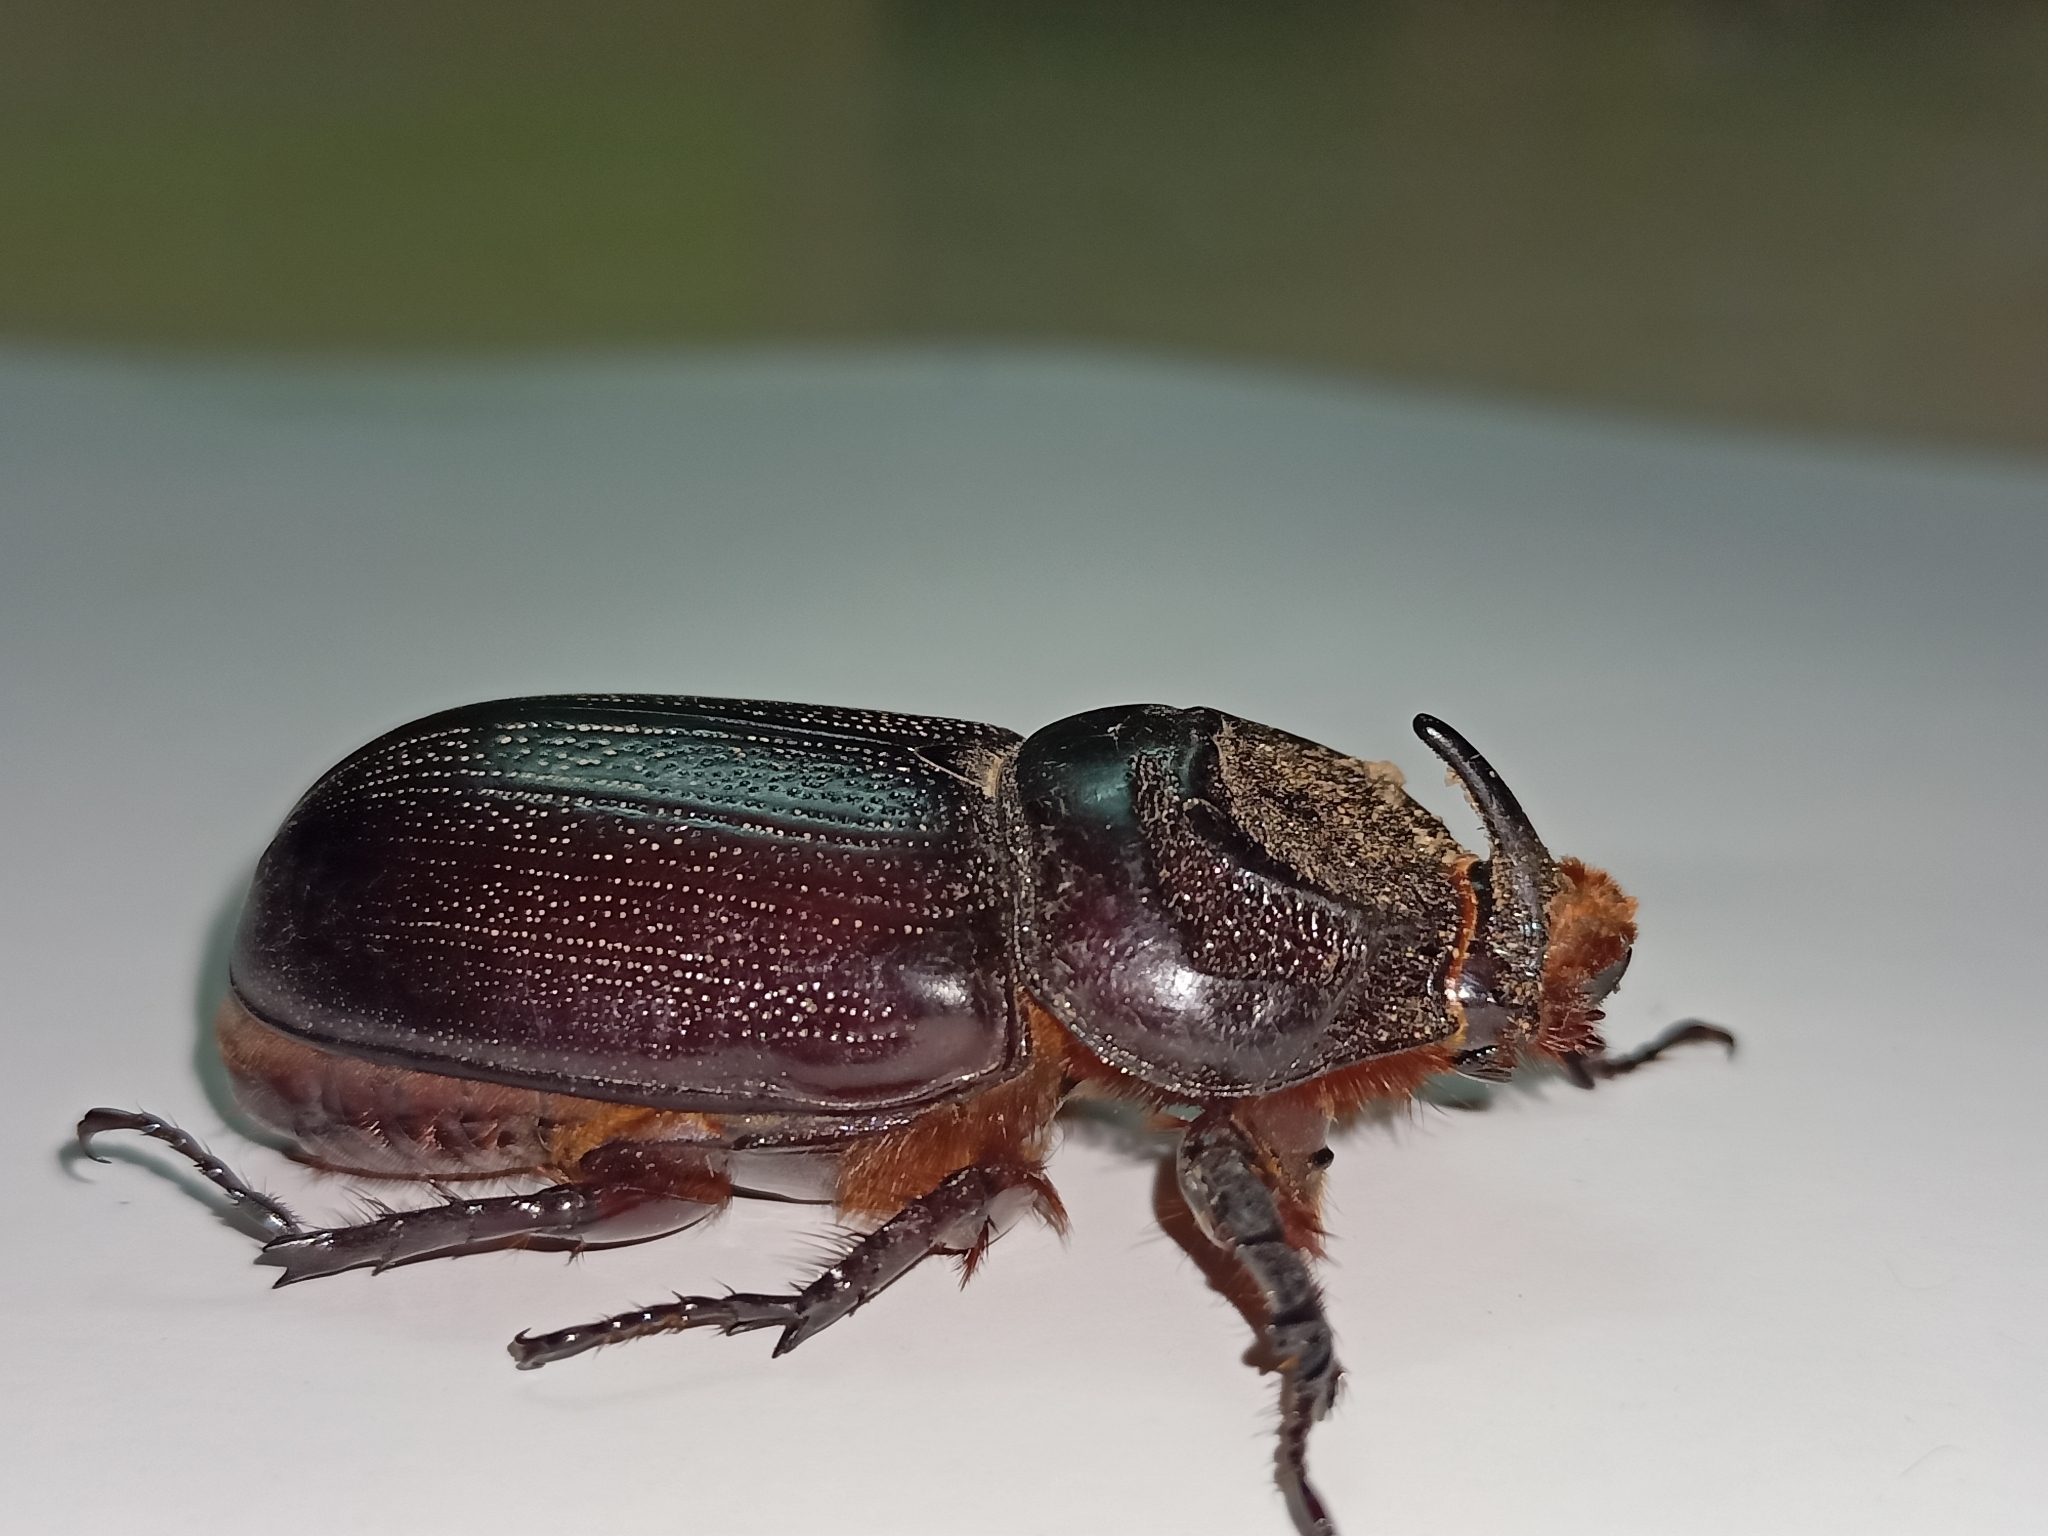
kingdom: Animalia
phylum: Arthropoda
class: Insecta
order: Coleoptera
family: Scarabaeidae
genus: Oryctes
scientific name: Oryctes rhinoceros
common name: Coconut rhinoceros beetle
